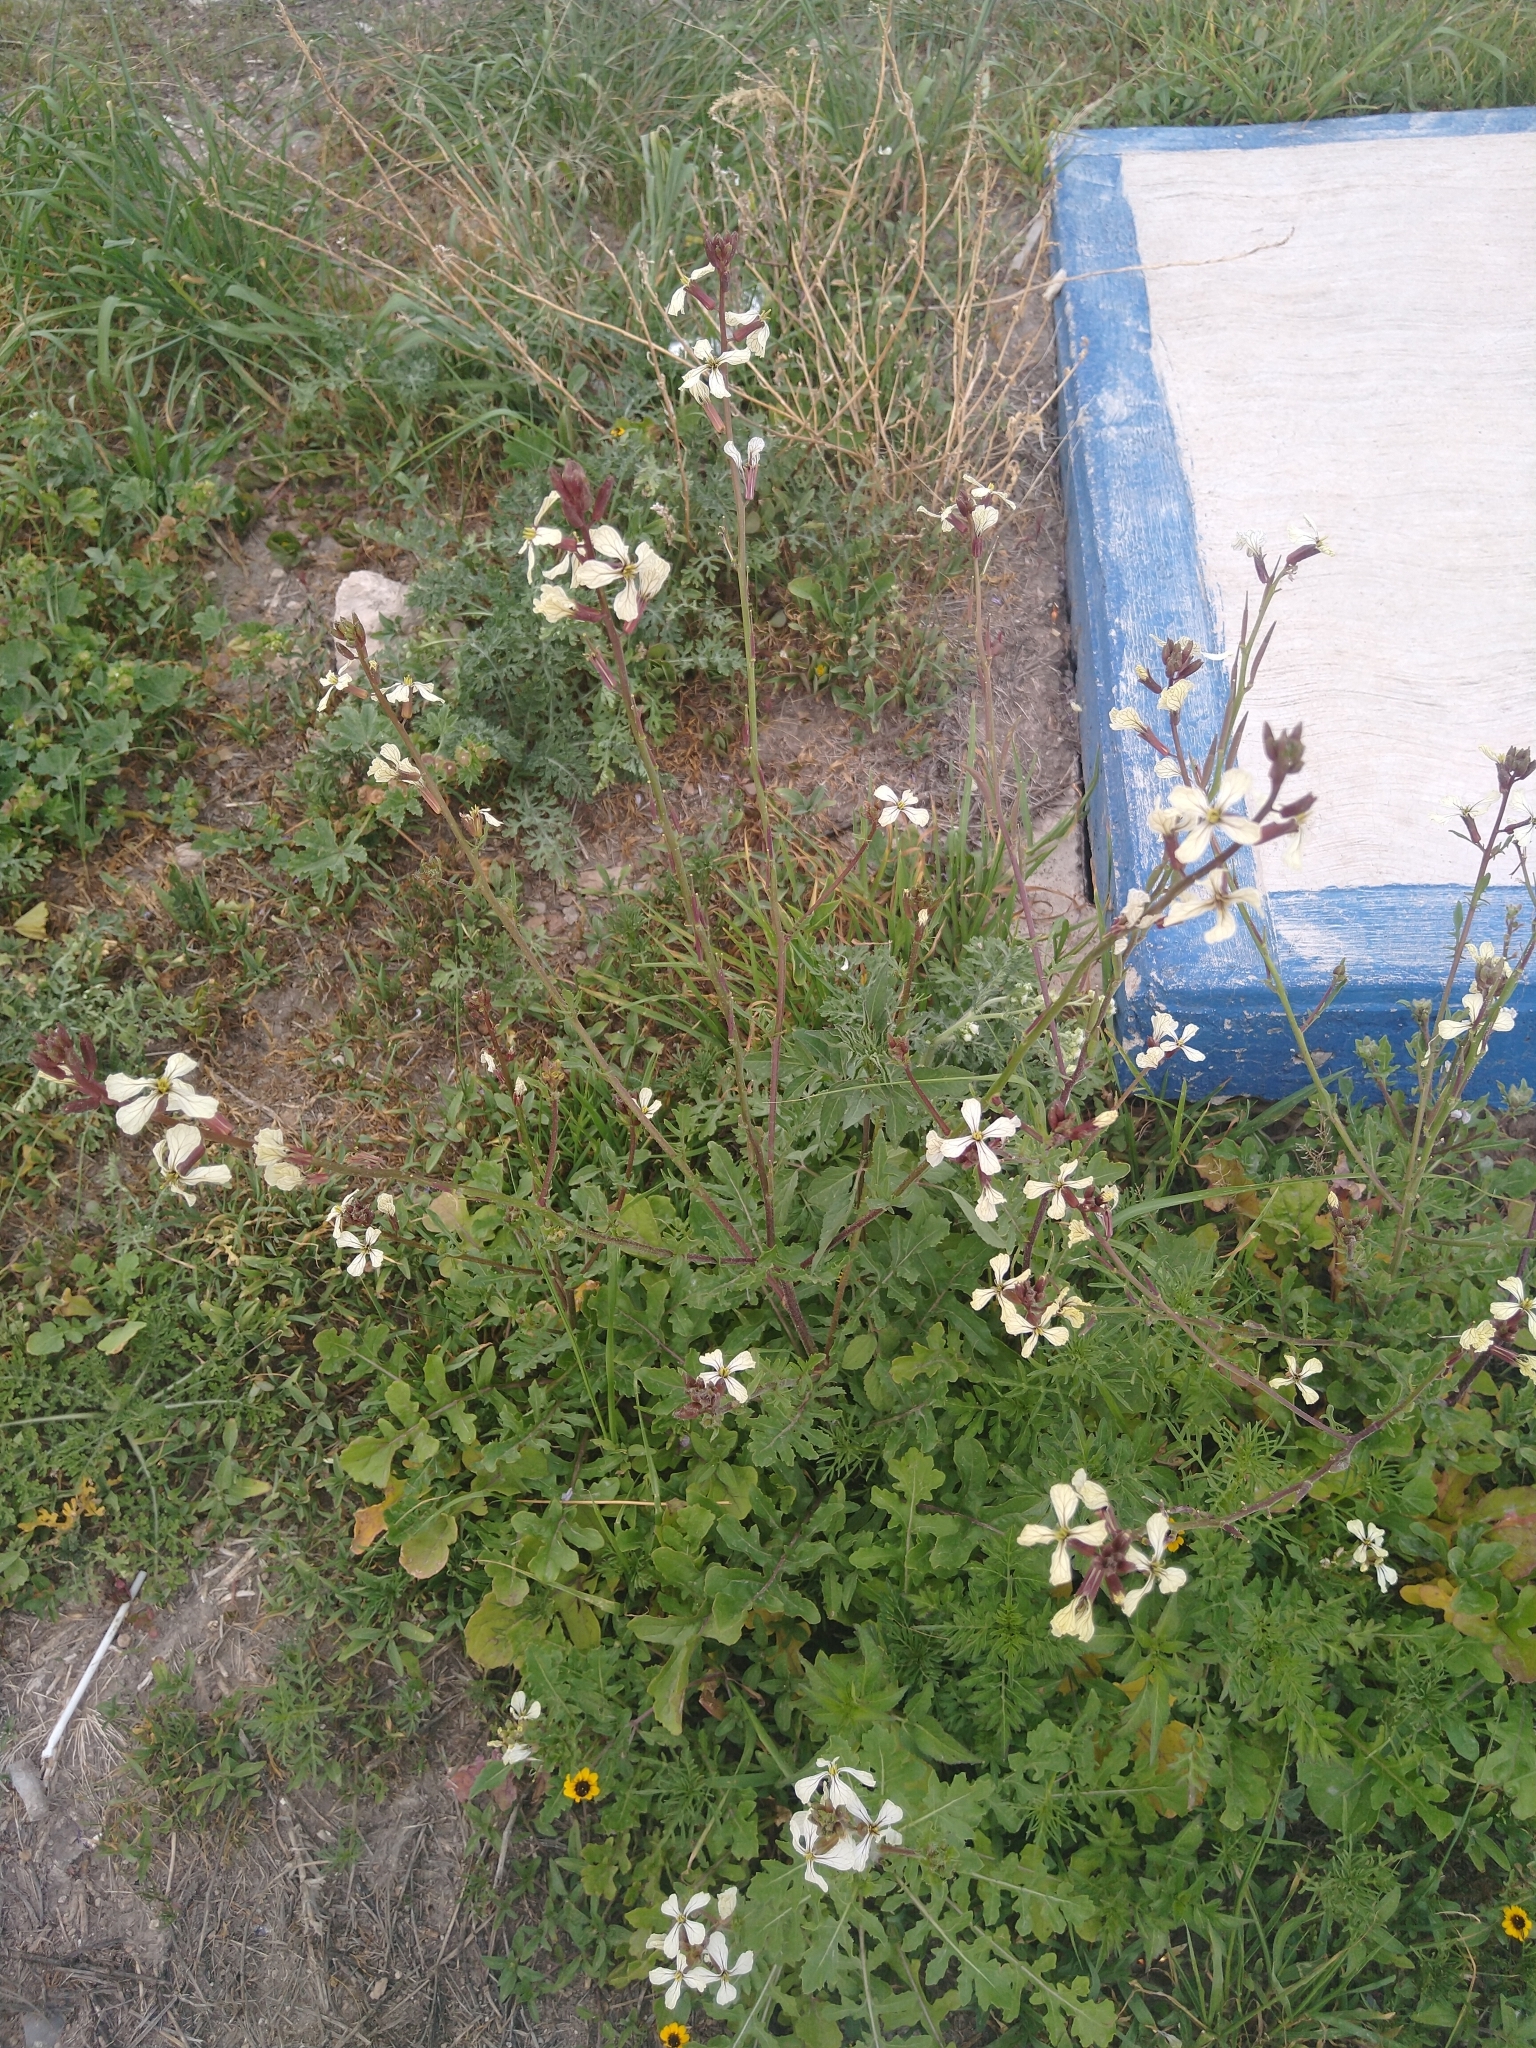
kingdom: Plantae
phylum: Tracheophyta
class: Magnoliopsida
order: Brassicales
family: Brassicaceae
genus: Eruca
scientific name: Eruca vesicaria
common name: Garden rocket
